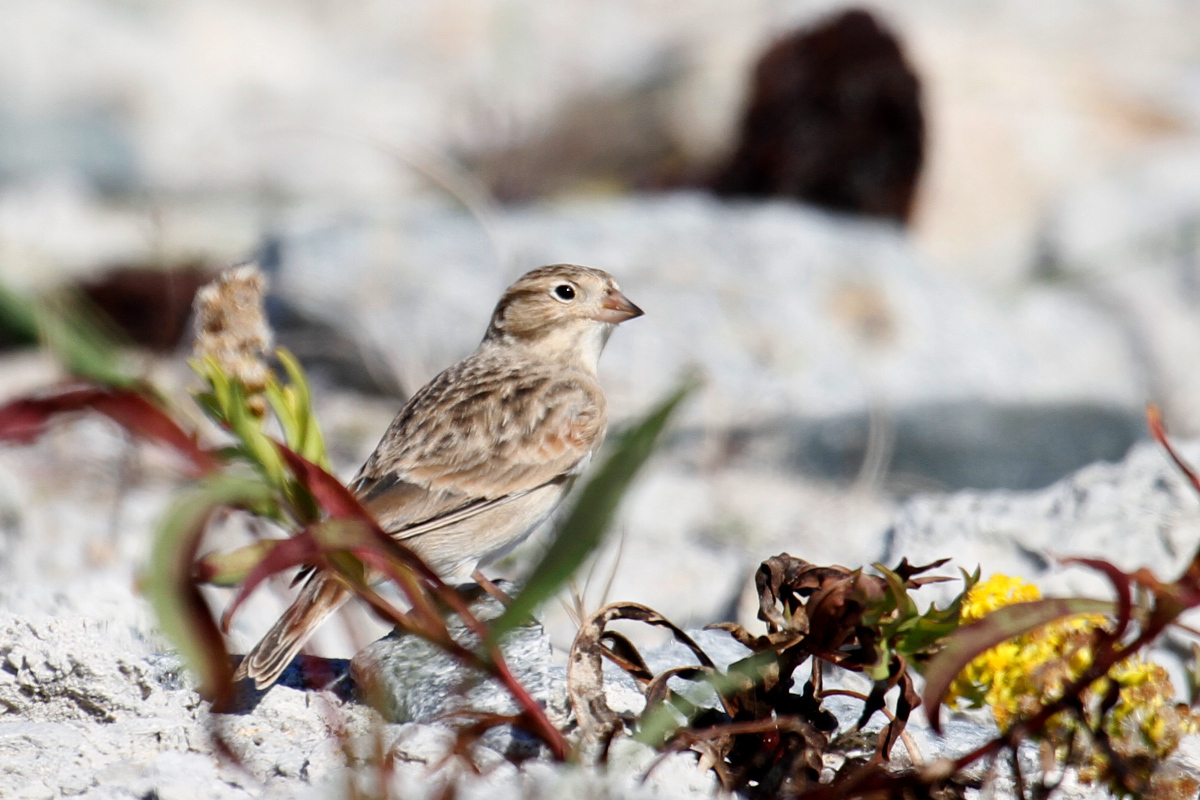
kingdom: Animalia
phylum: Chordata
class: Aves
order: Passeriformes
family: Calcariidae
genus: Rhynchophanes
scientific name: Rhynchophanes mccownii
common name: Mccown's longspur
